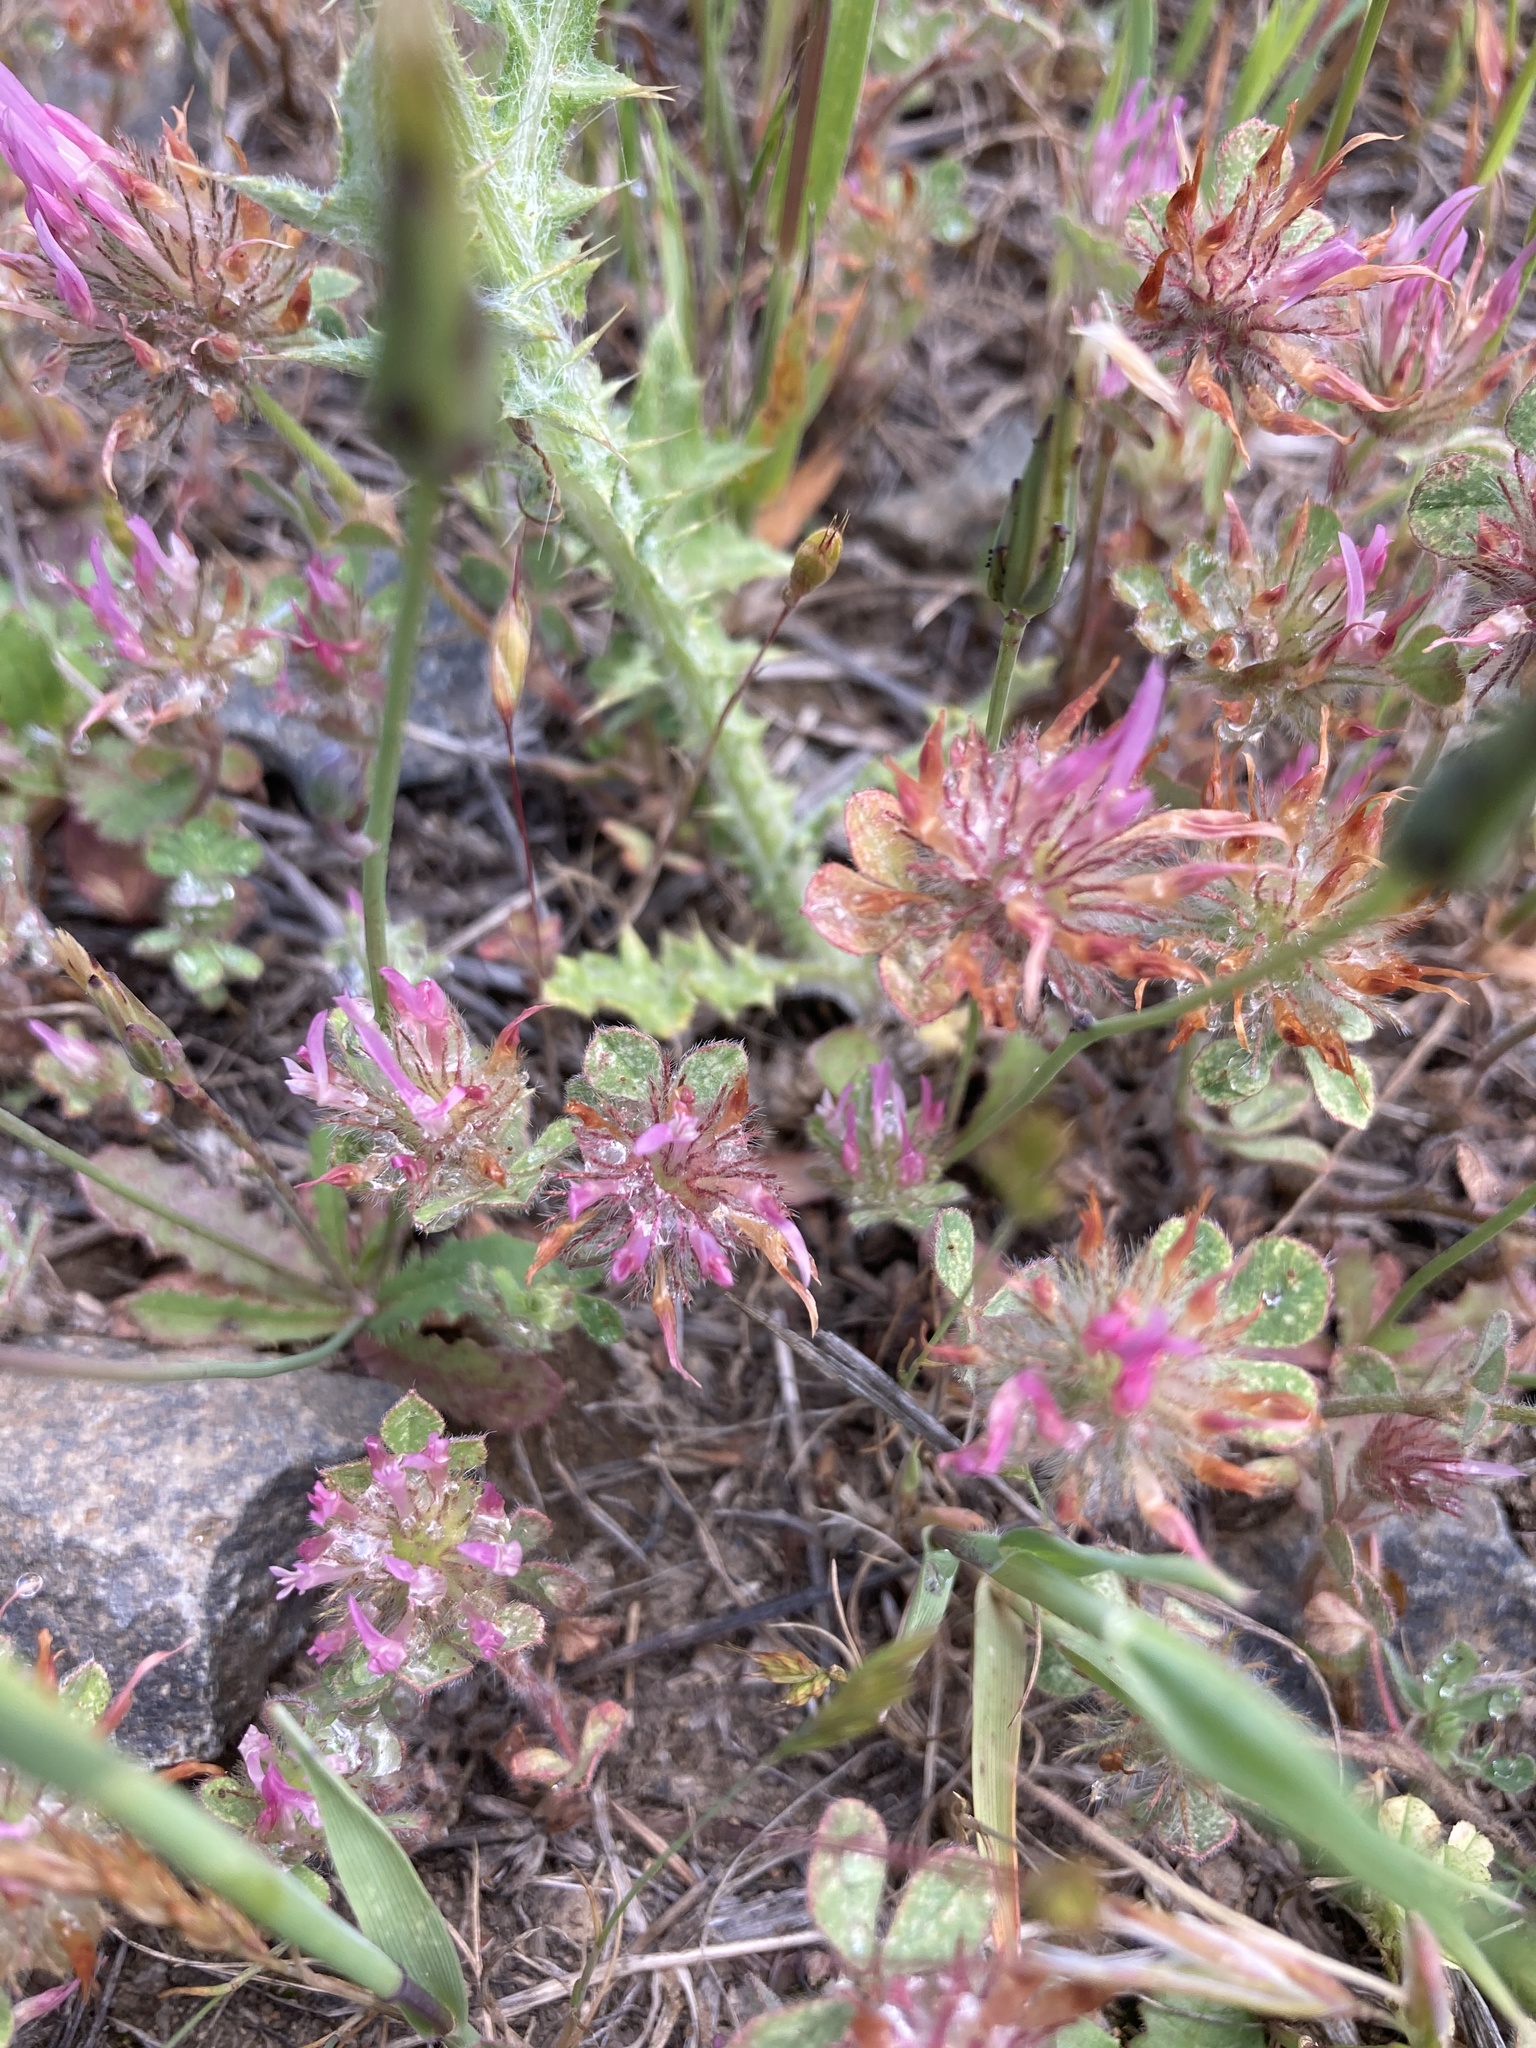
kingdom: Plantae
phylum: Tracheophyta
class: Magnoliopsida
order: Fabales
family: Fabaceae
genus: Trifolium
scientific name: Trifolium hirtum
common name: Rose clover
